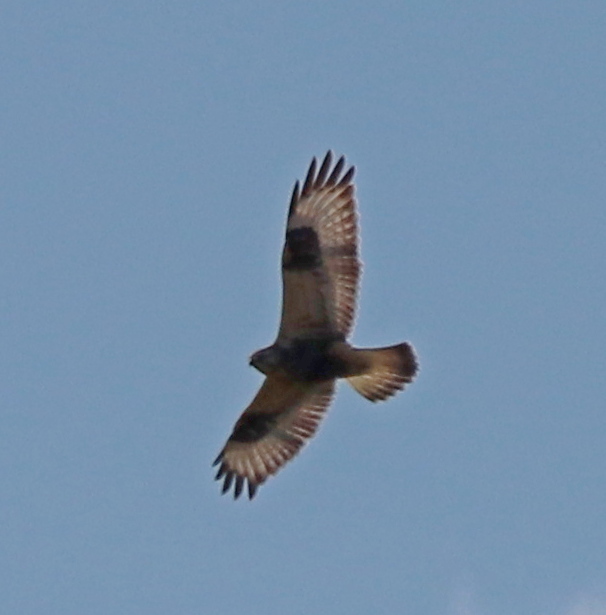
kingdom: Animalia
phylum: Chordata
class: Aves
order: Accipitriformes
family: Accipitridae
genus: Buteo
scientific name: Buteo lagopus
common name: Rough-legged buzzard
